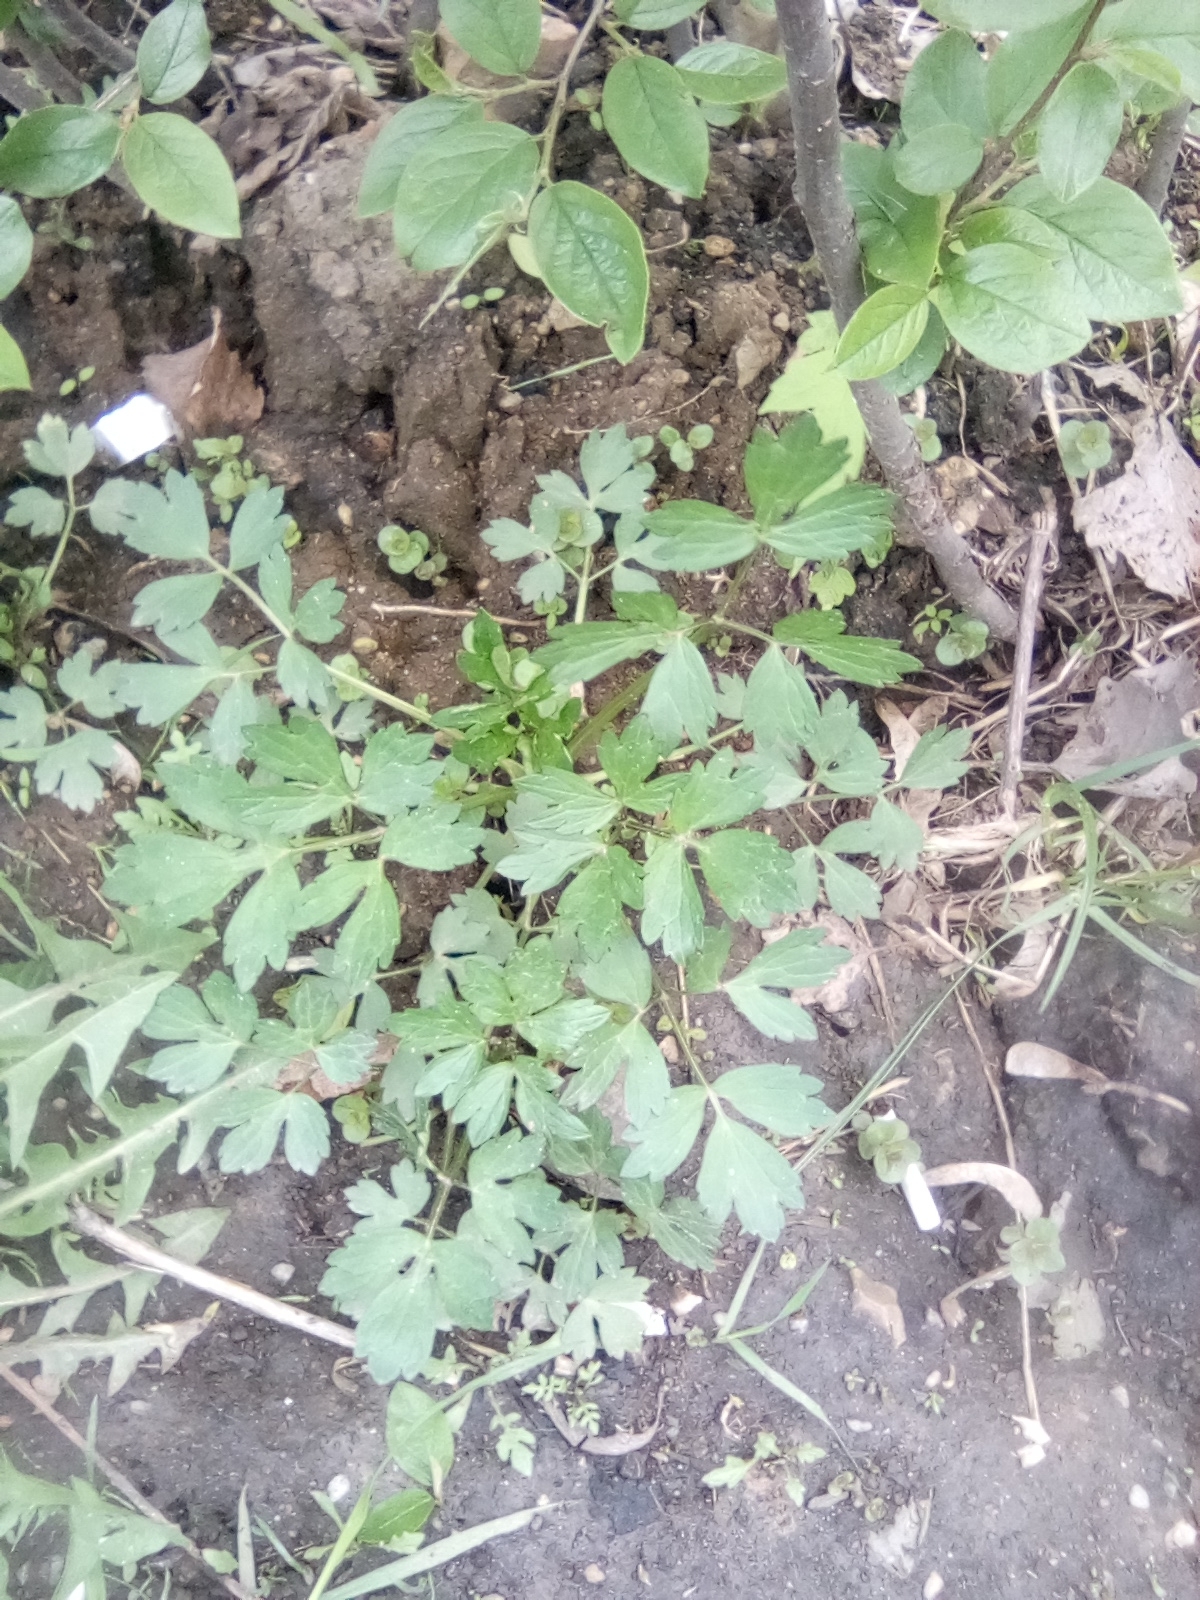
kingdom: Plantae
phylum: Tracheophyta
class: Magnoliopsida
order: Ranunculales
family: Ranunculaceae
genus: Ranunculus
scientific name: Ranunculus repens
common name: Creeping buttercup
